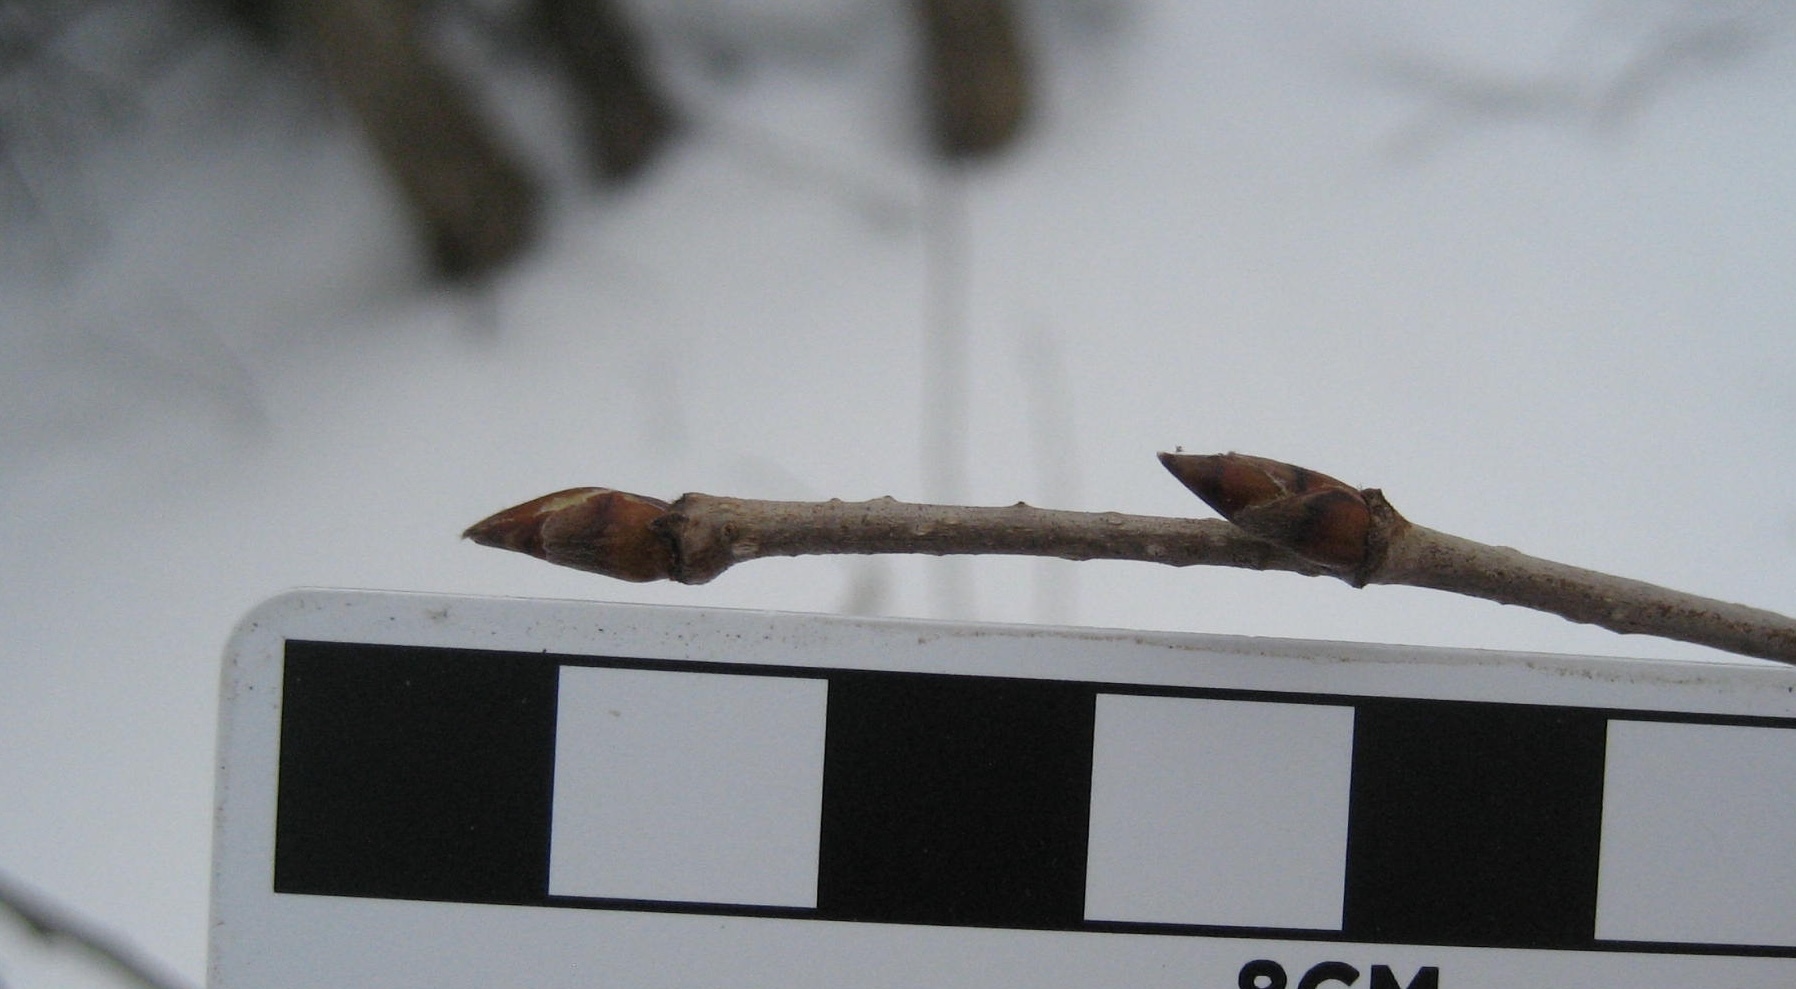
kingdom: Plantae
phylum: Tracheophyta
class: Magnoliopsida
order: Fagales
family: Betulaceae
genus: Betula
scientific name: Betula alleghaniensis
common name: Yellow birch
